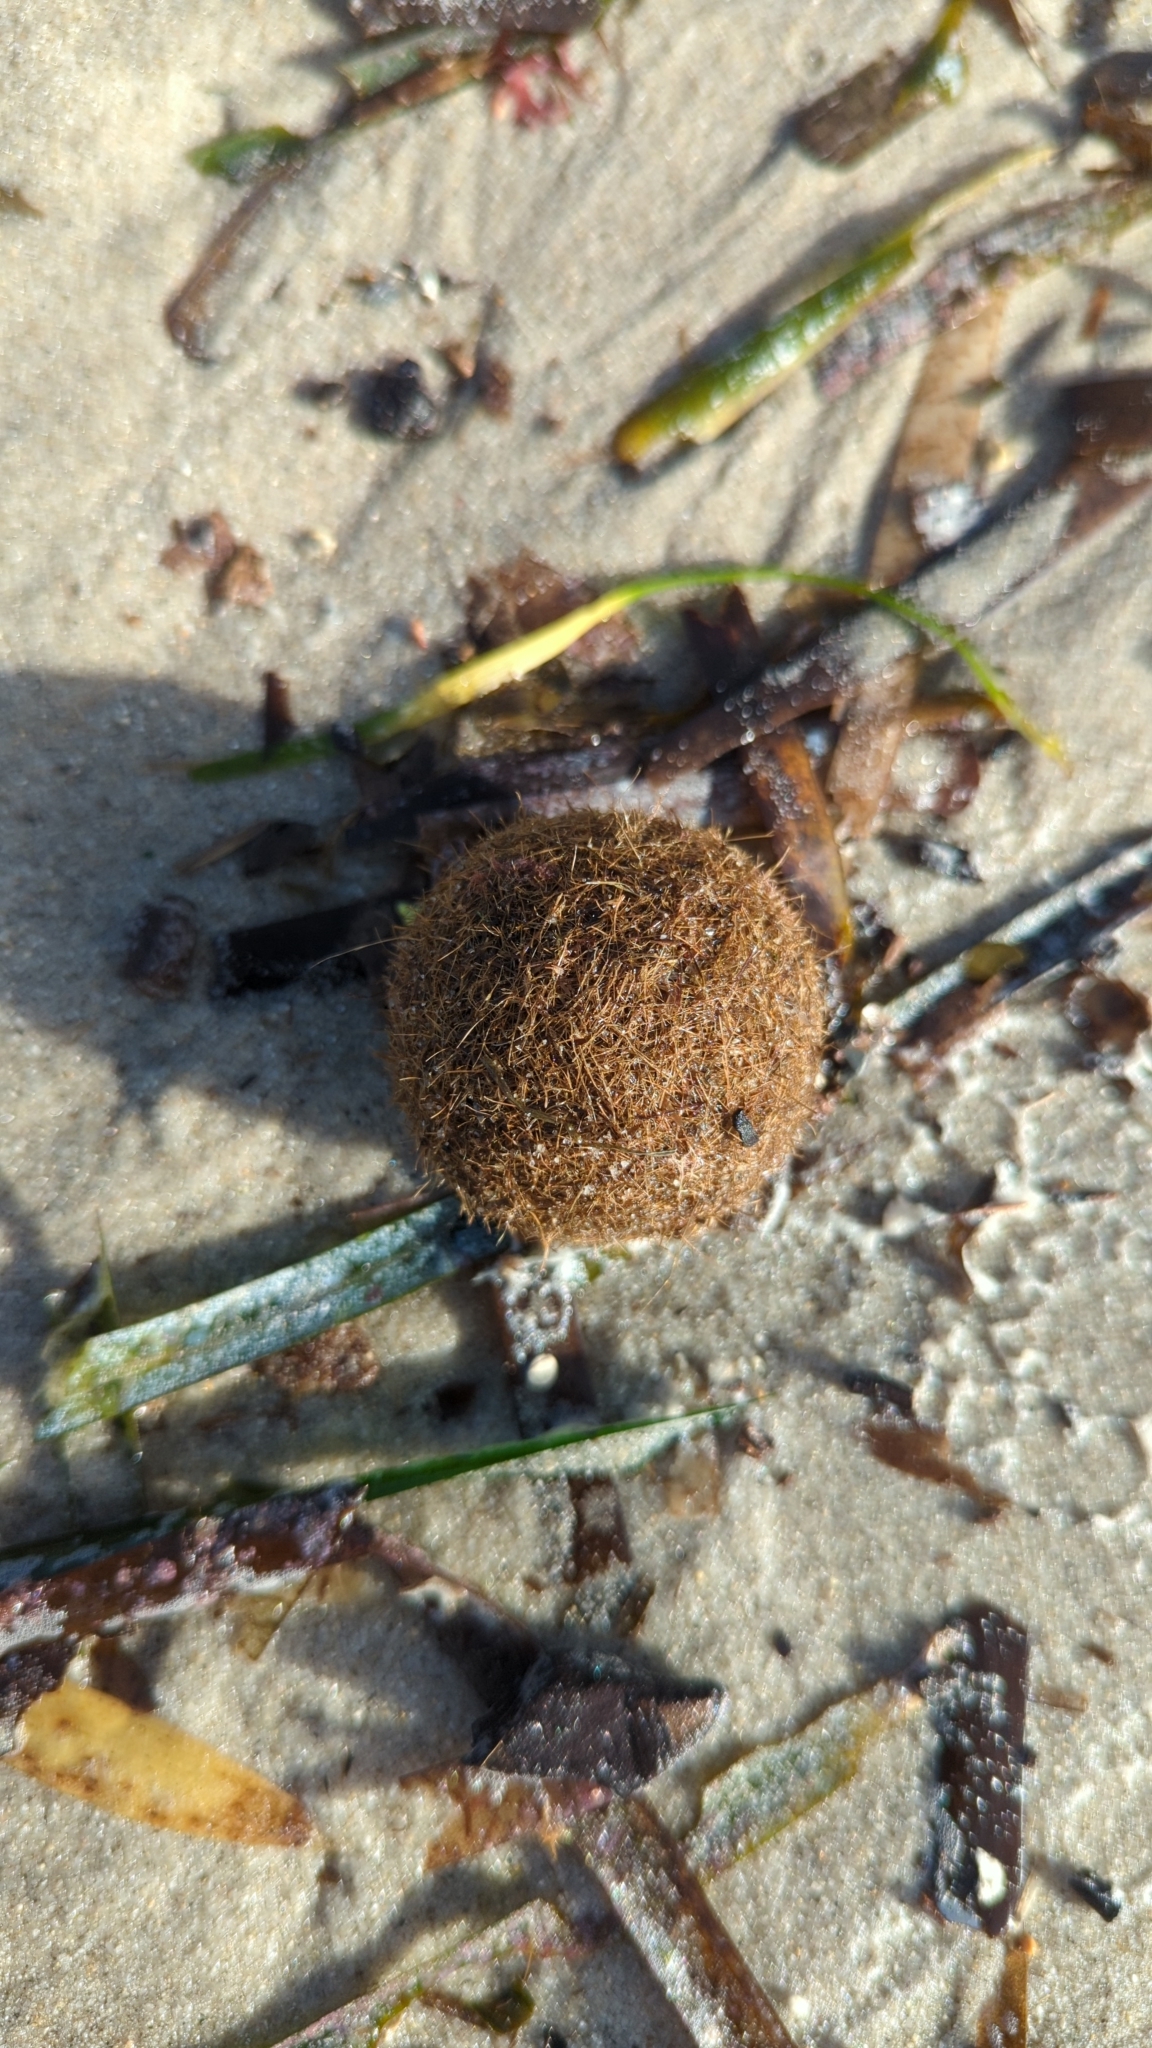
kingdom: Plantae
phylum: Tracheophyta
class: Liliopsida
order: Alismatales
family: Posidoniaceae
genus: Posidonia
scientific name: Posidonia oceanica
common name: Mediterranean tapeweed
